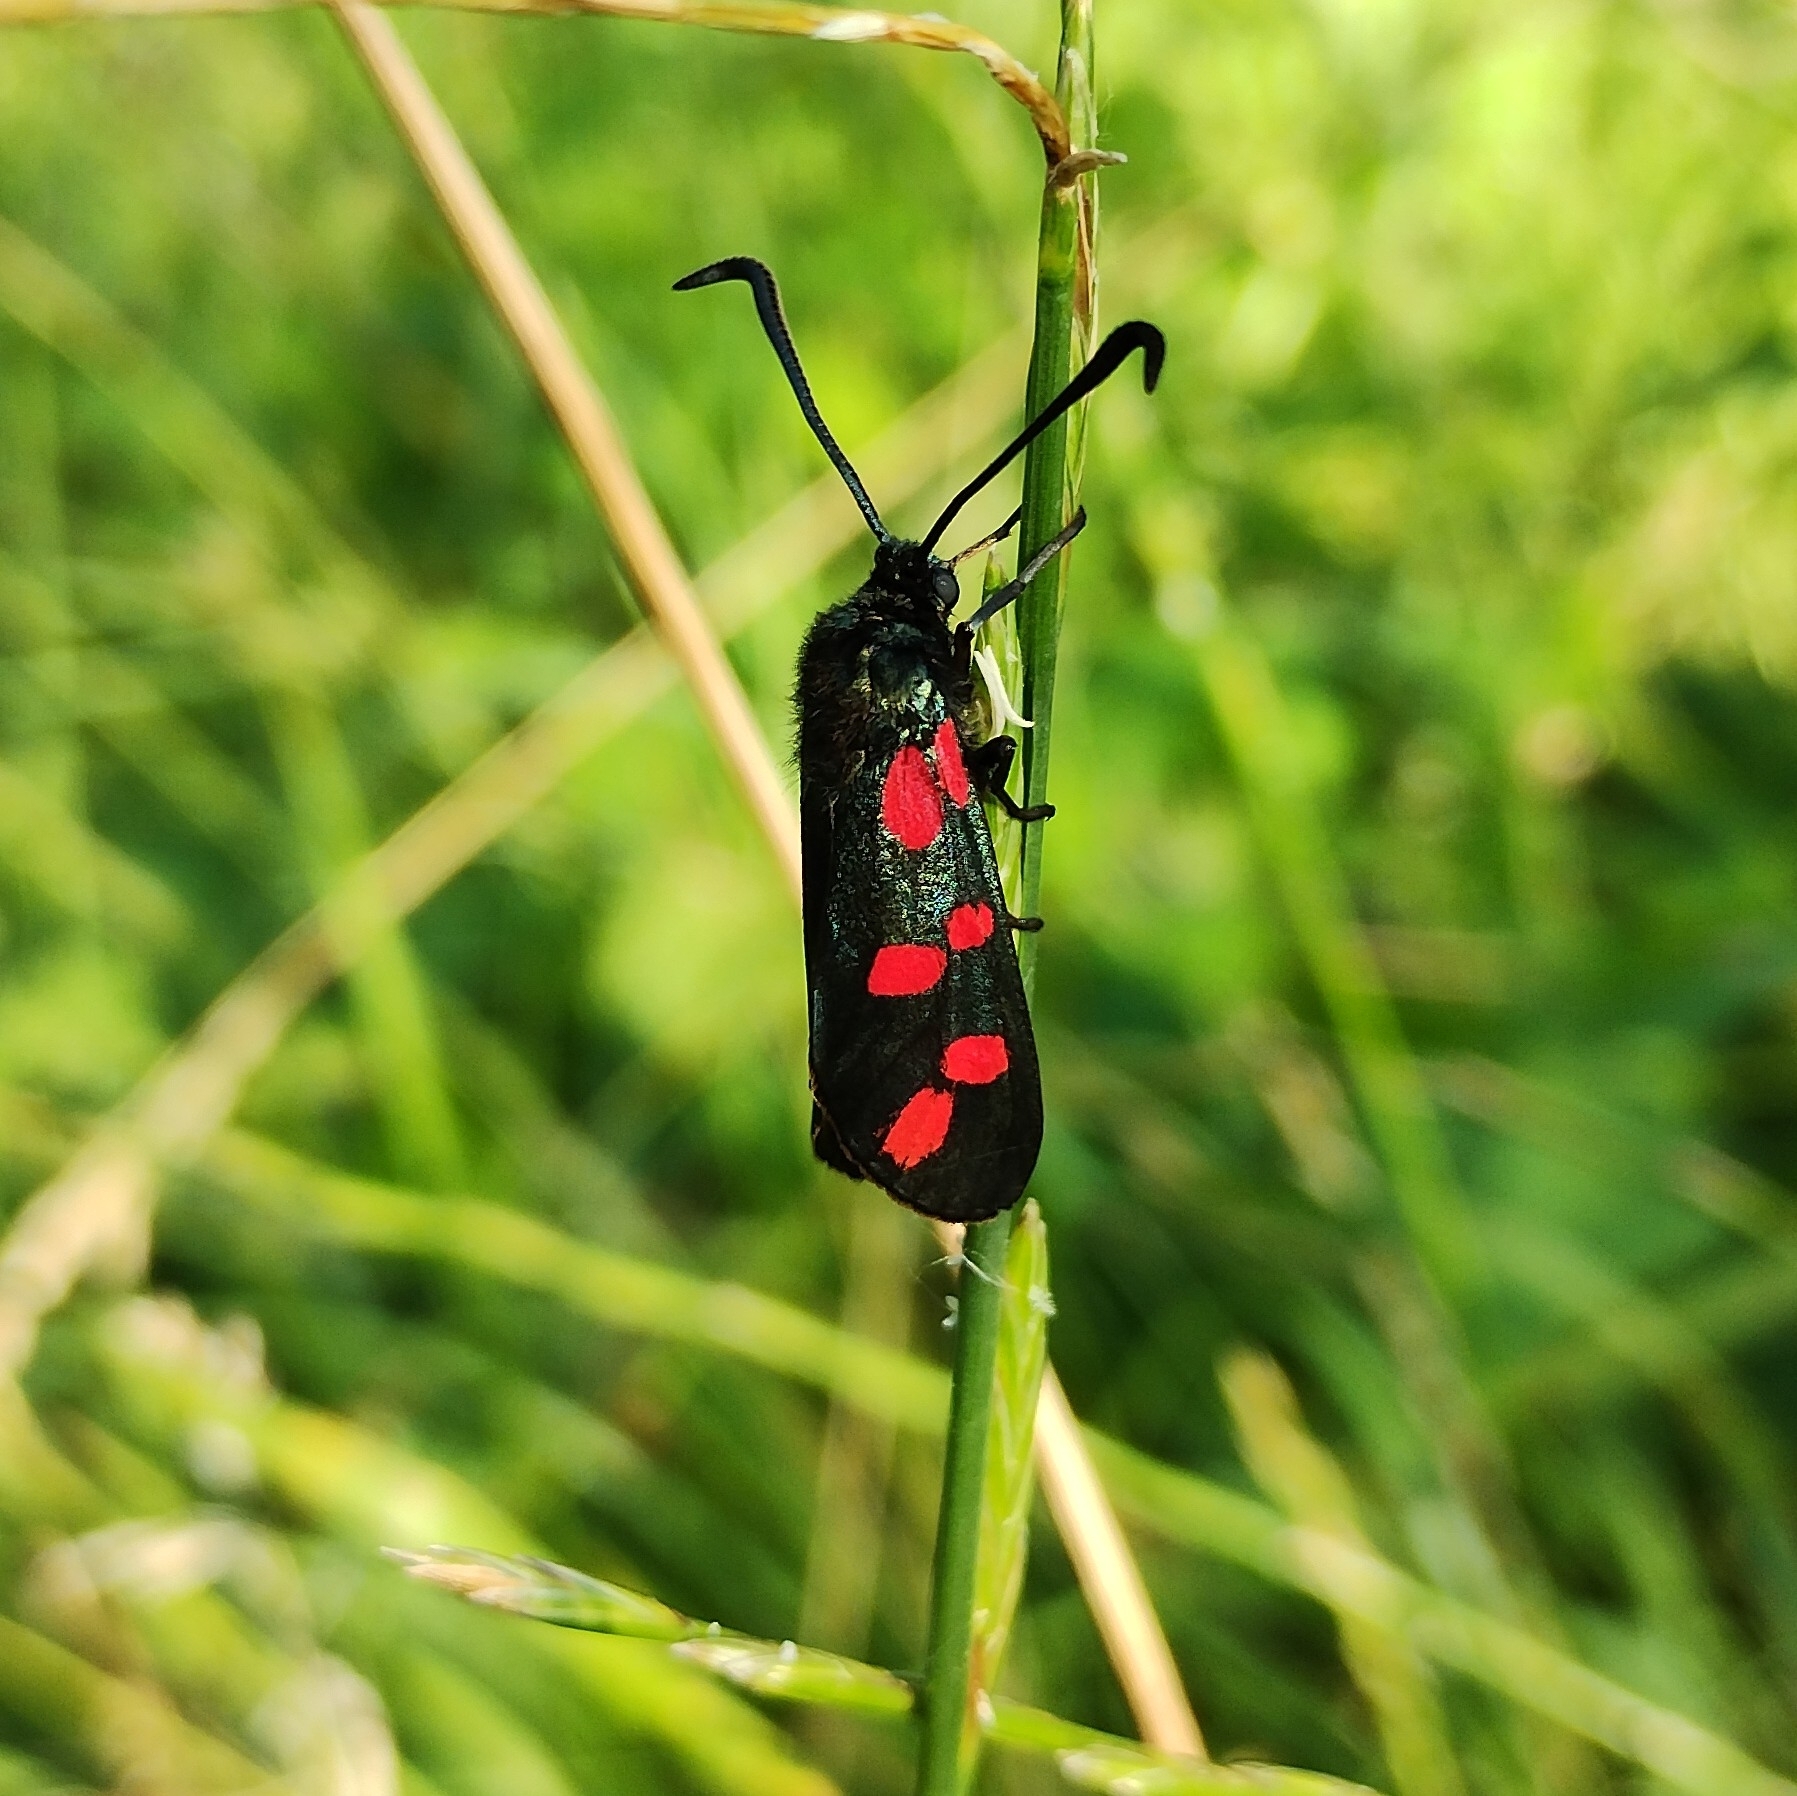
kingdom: Animalia
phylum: Arthropoda
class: Insecta
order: Lepidoptera
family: Zygaenidae
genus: Zygaena
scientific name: Zygaena filipendulae
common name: Six-spot burnet
